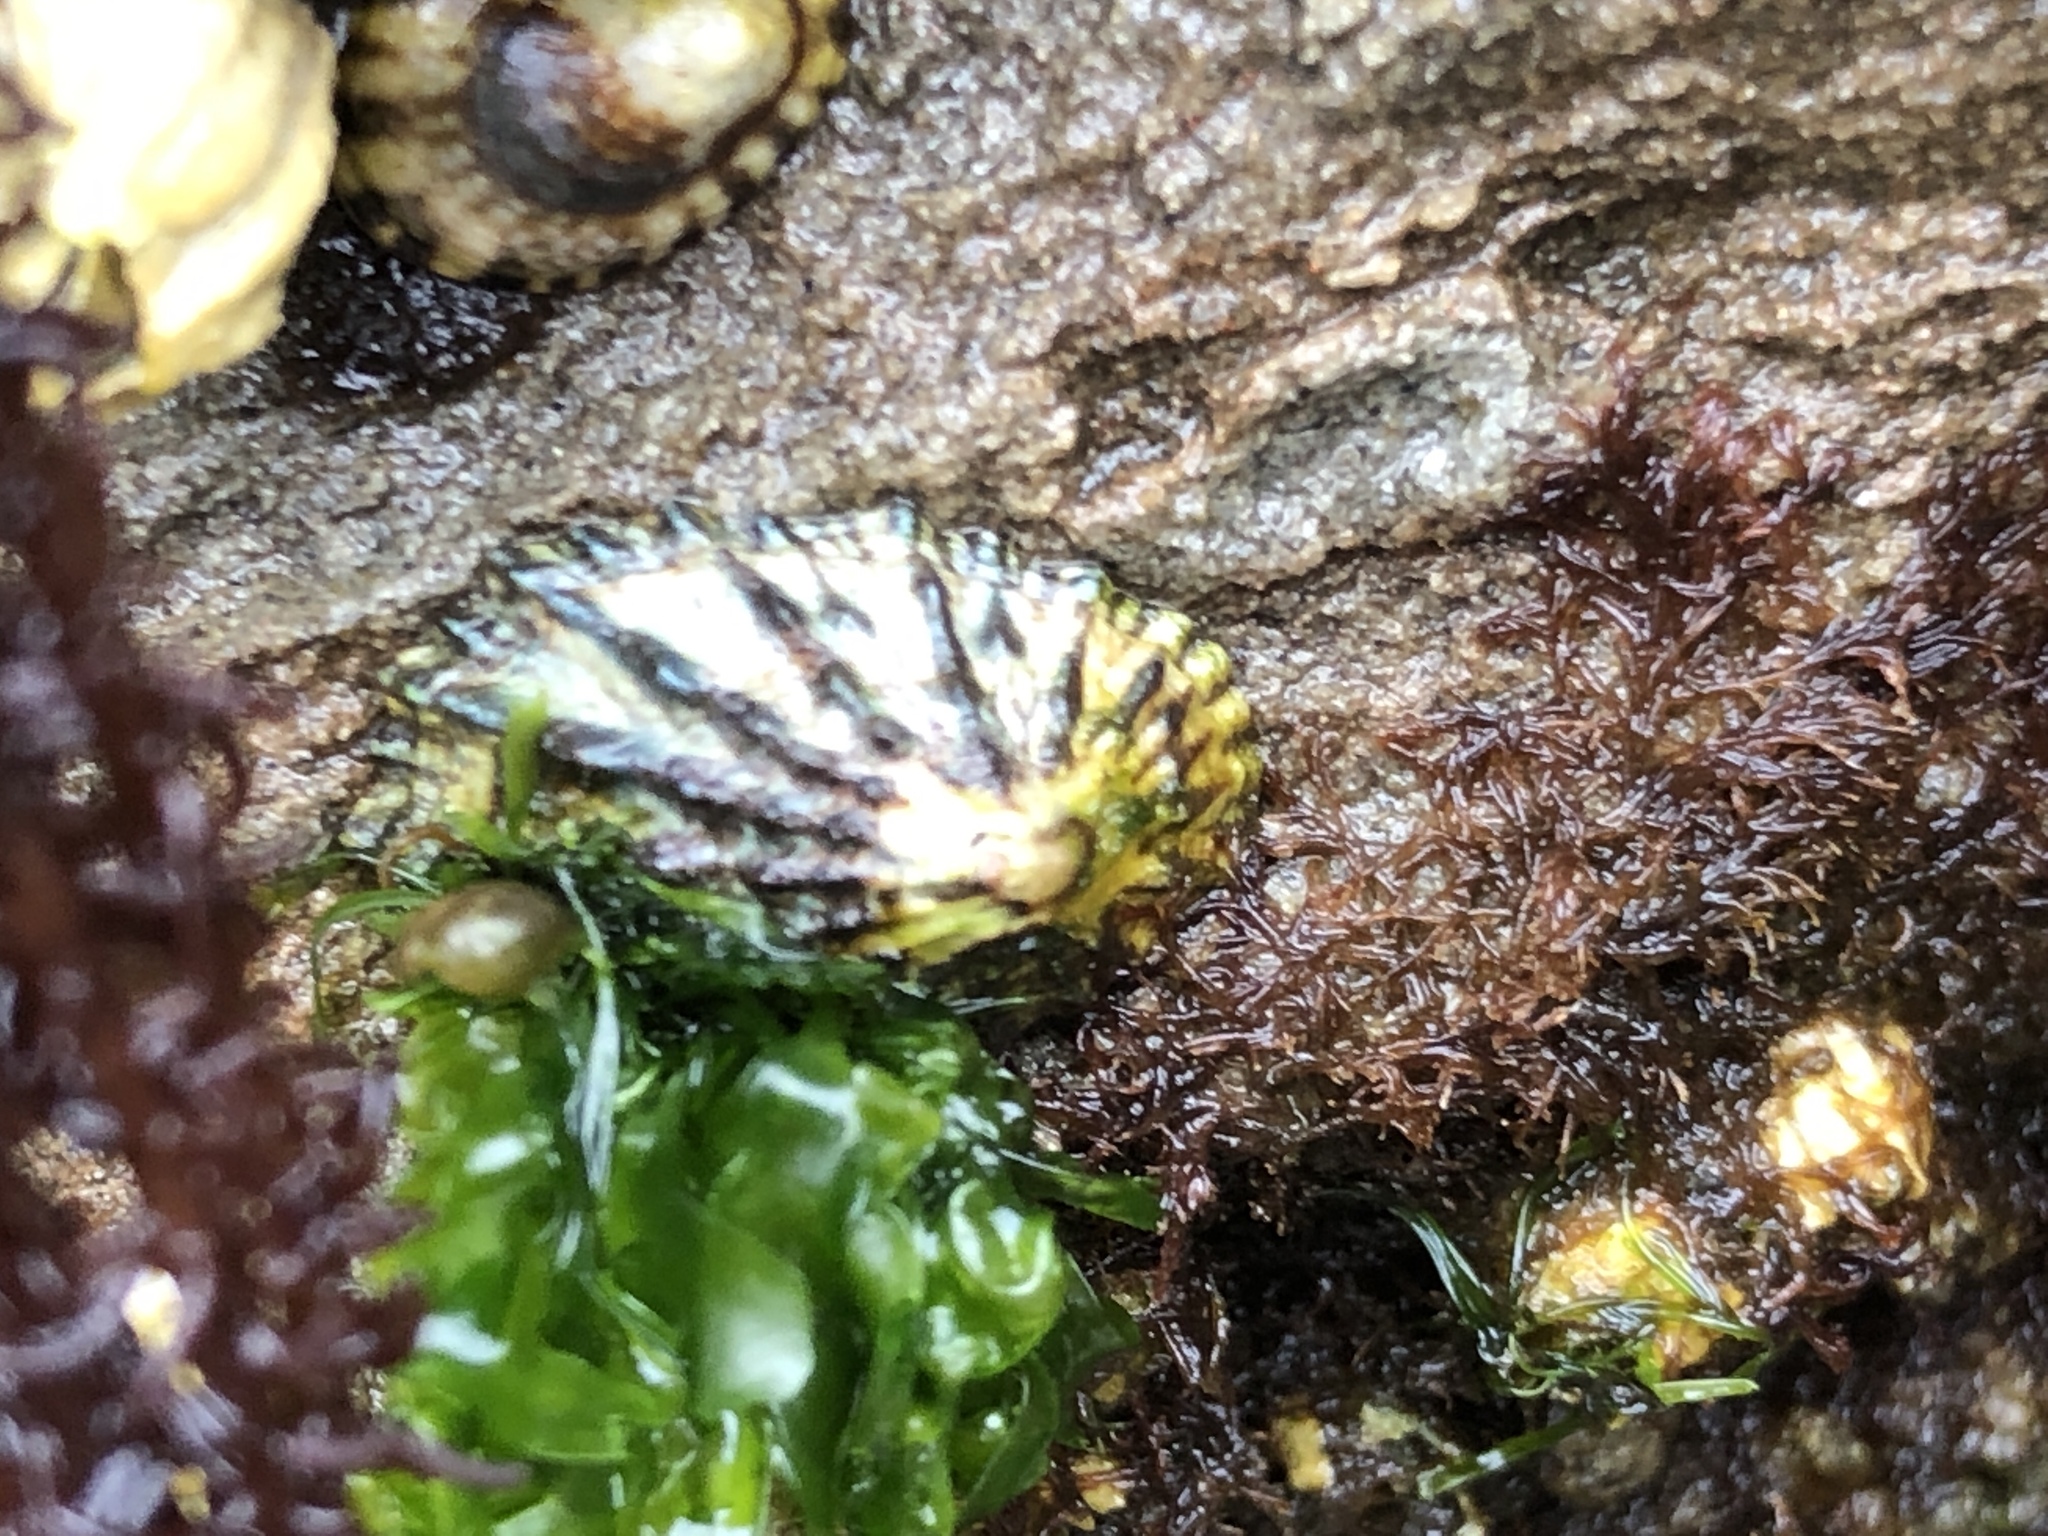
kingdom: Animalia
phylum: Mollusca
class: Gastropoda
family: Lottiidae
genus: Lottia
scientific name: Lottia scabra
